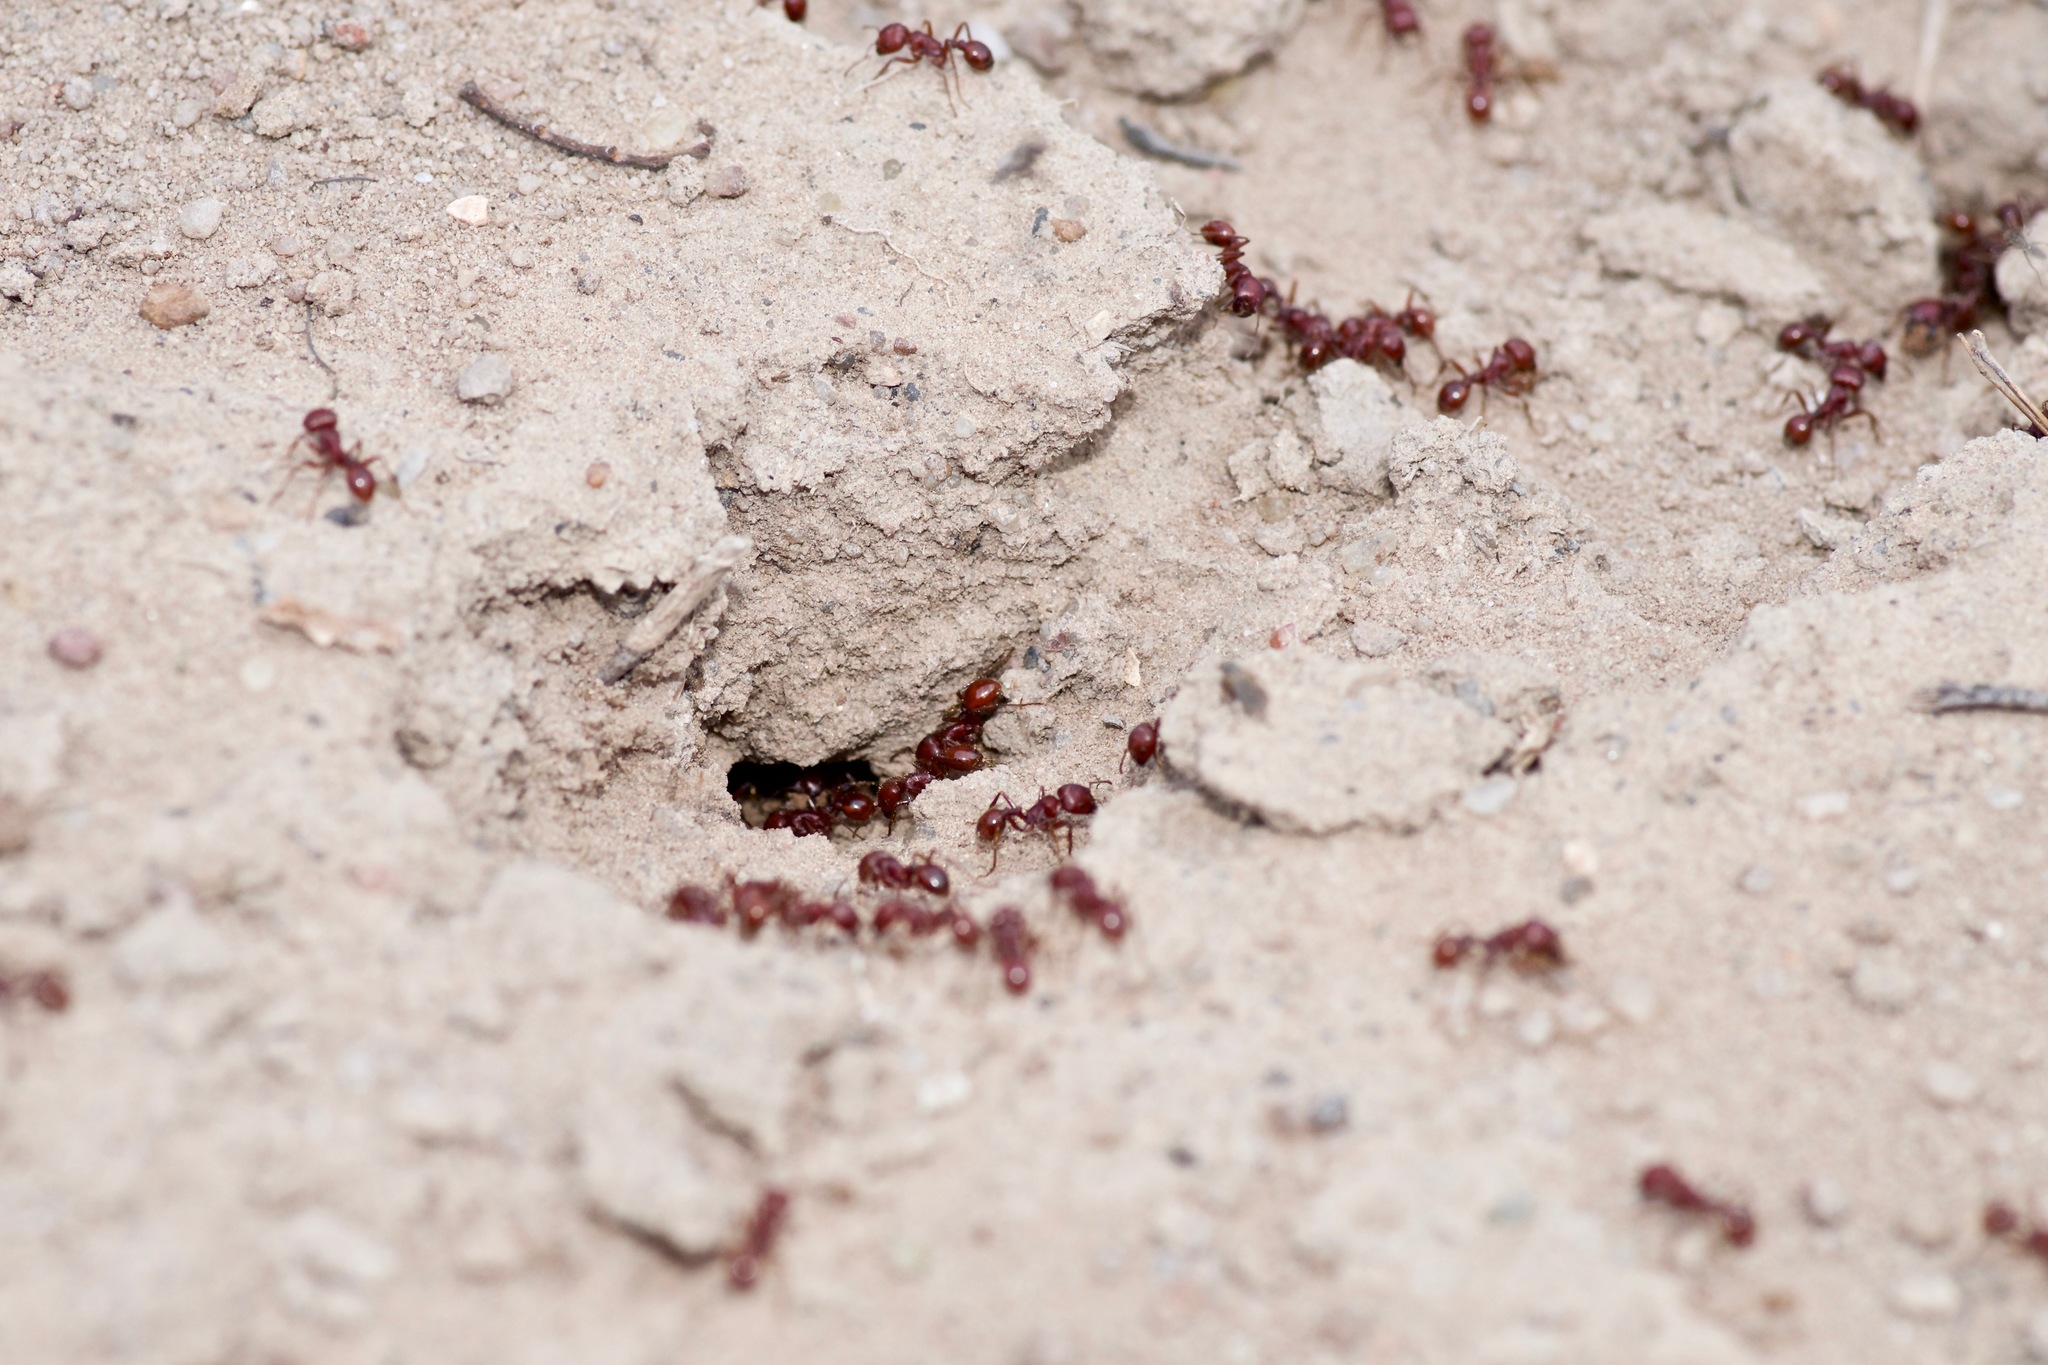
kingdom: Animalia
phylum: Arthropoda
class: Insecta
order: Hymenoptera
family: Formicidae
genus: Pogonomyrmex
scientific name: Pogonomyrmex barbatus
